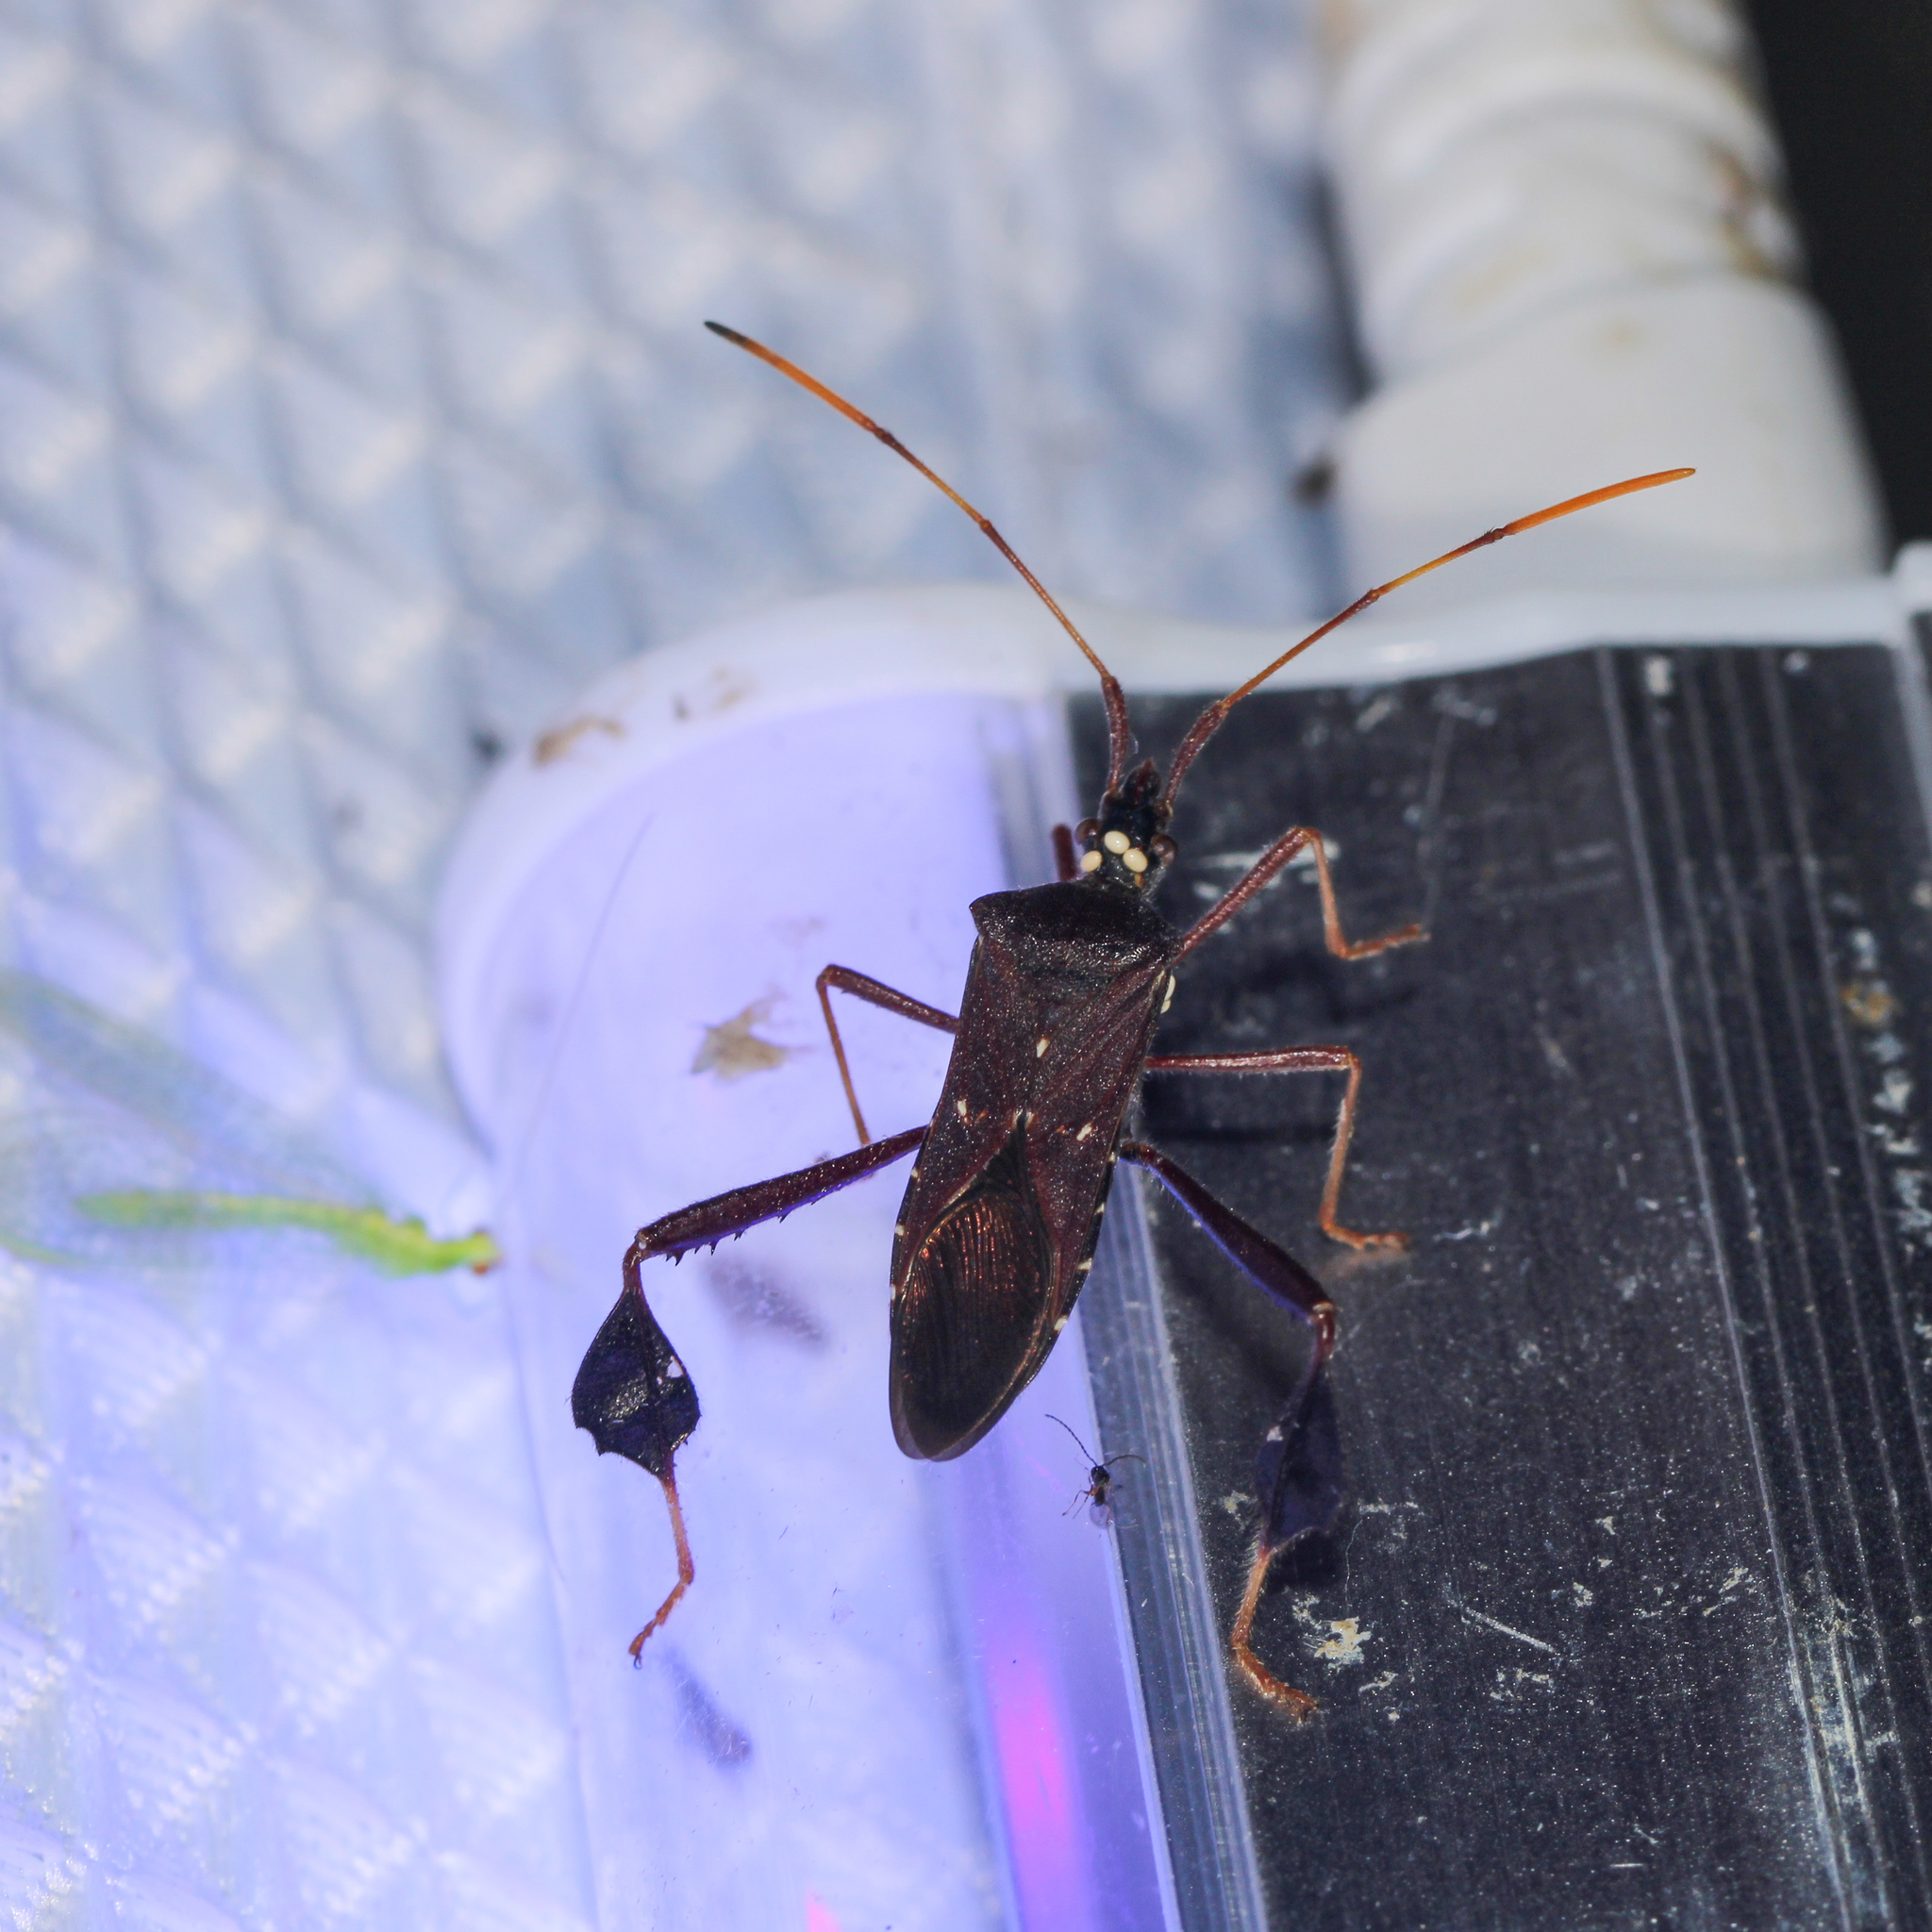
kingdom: Animalia
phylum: Arthropoda
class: Insecta
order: Hemiptera
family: Coreidae
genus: Leptoglossus
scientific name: Leptoglossus oppositus
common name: Northern leaf-footed bug
